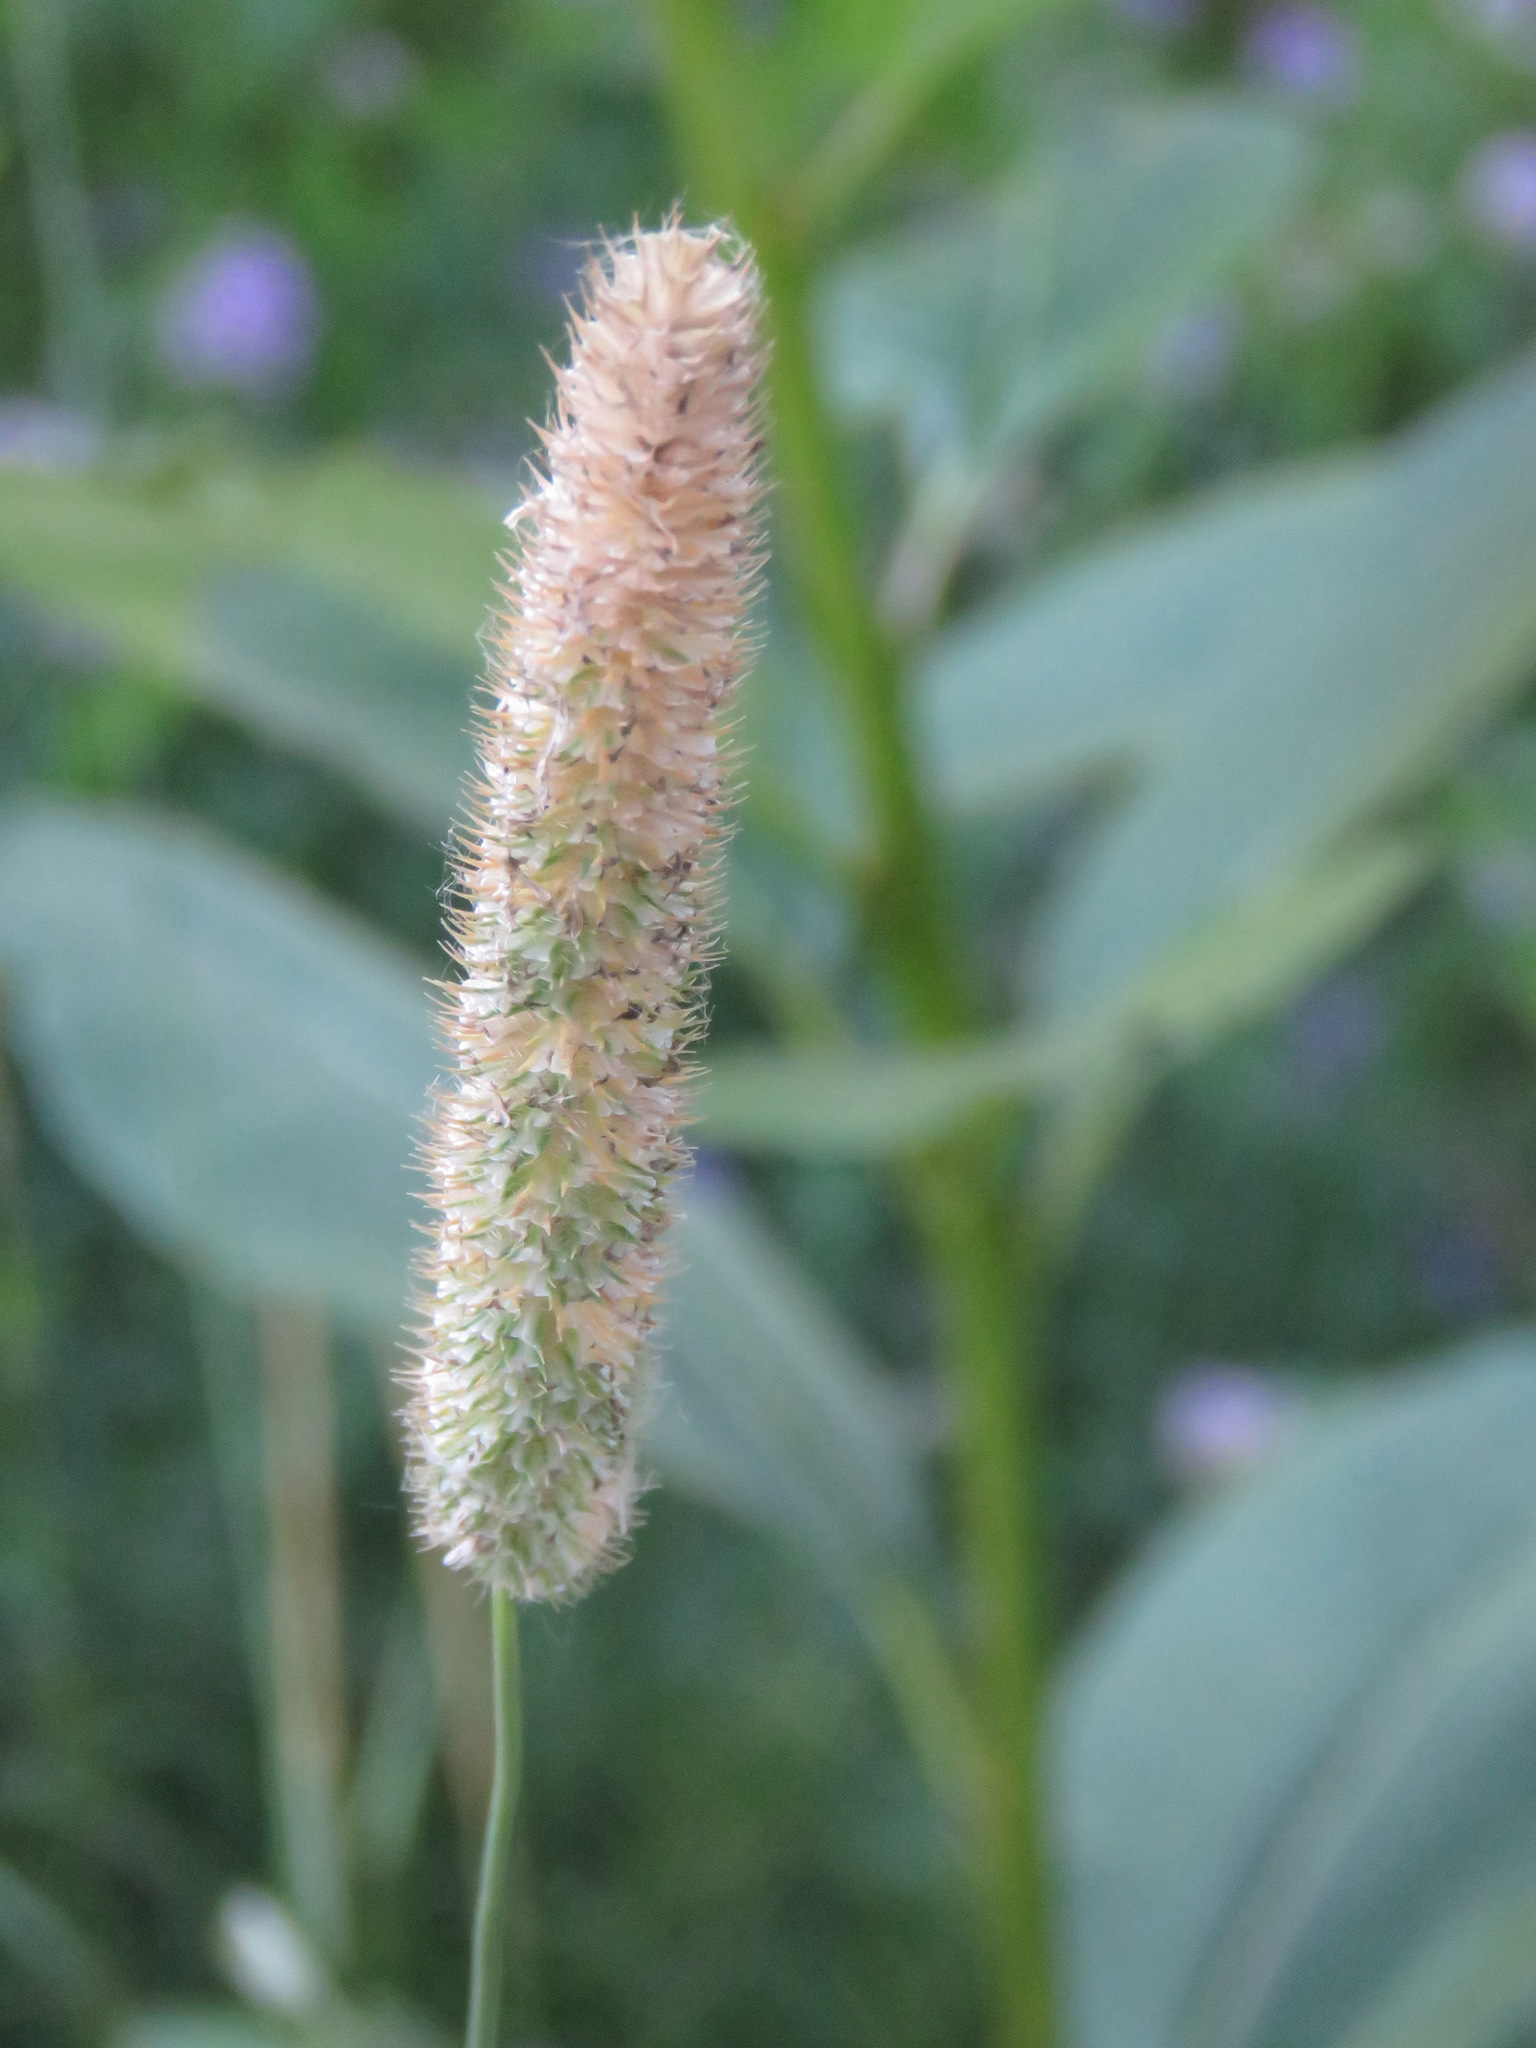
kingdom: Plantae
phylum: Tracheophyta
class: Liliopsida
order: Poales
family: Poaceae
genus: Phleum
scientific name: Phleum pratense
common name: Timothy grass
